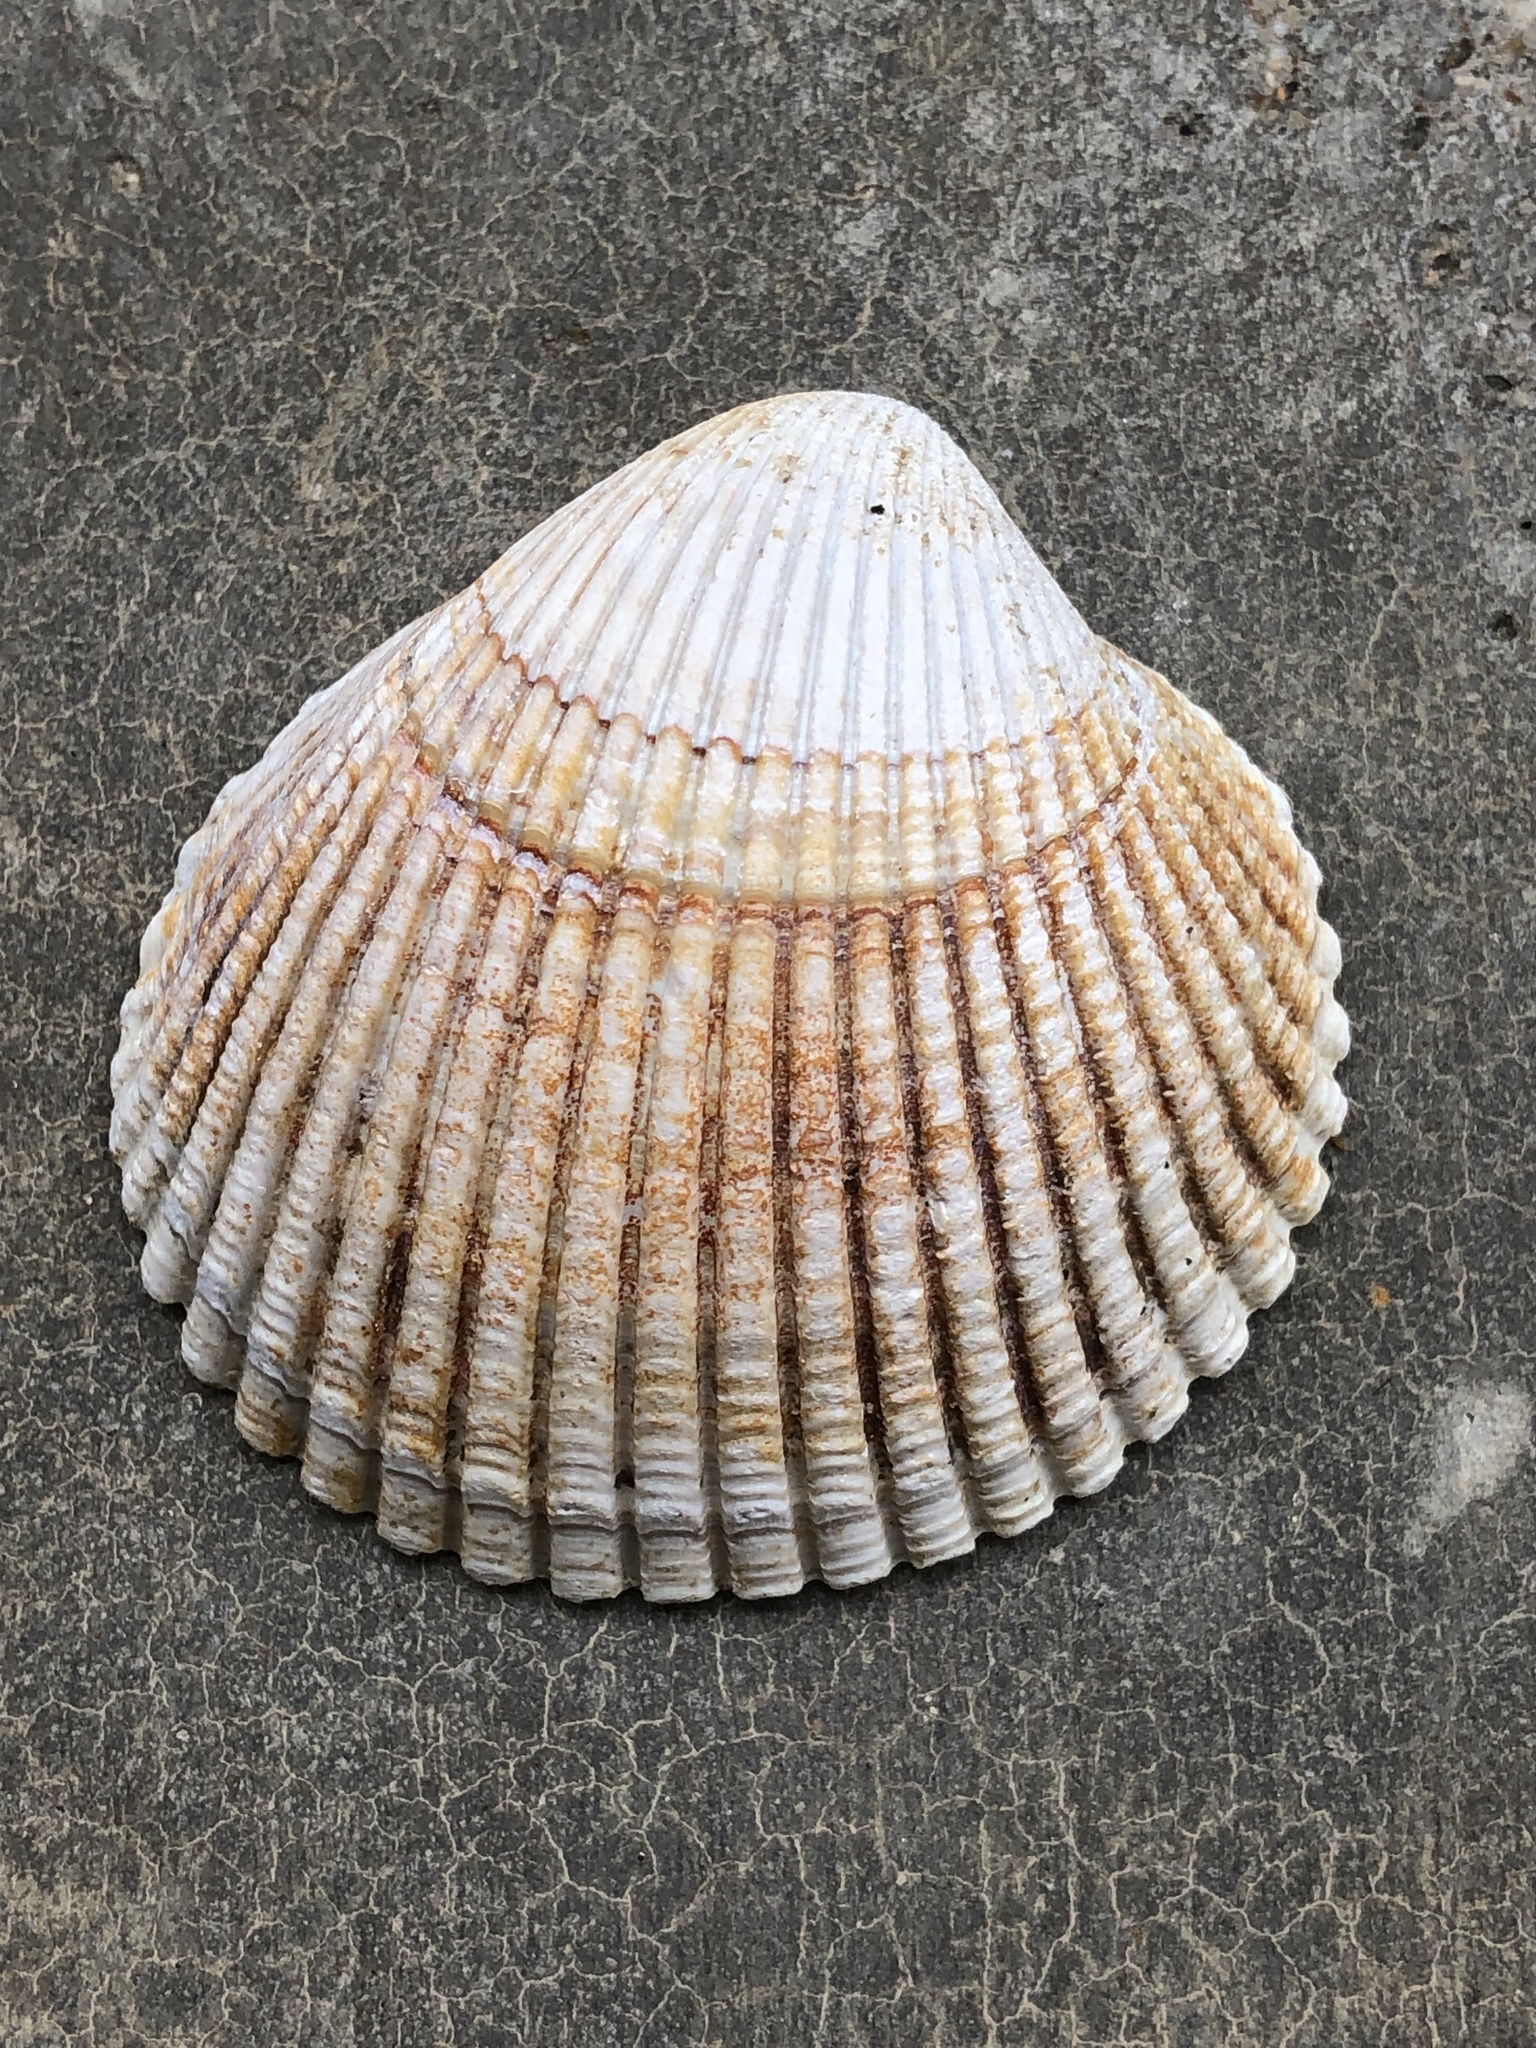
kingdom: Animalia
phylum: Mollusca
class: Bivalvia
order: Cardiida
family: Cardiidae
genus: Clinocardium
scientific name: Clinocardium nuttallii
